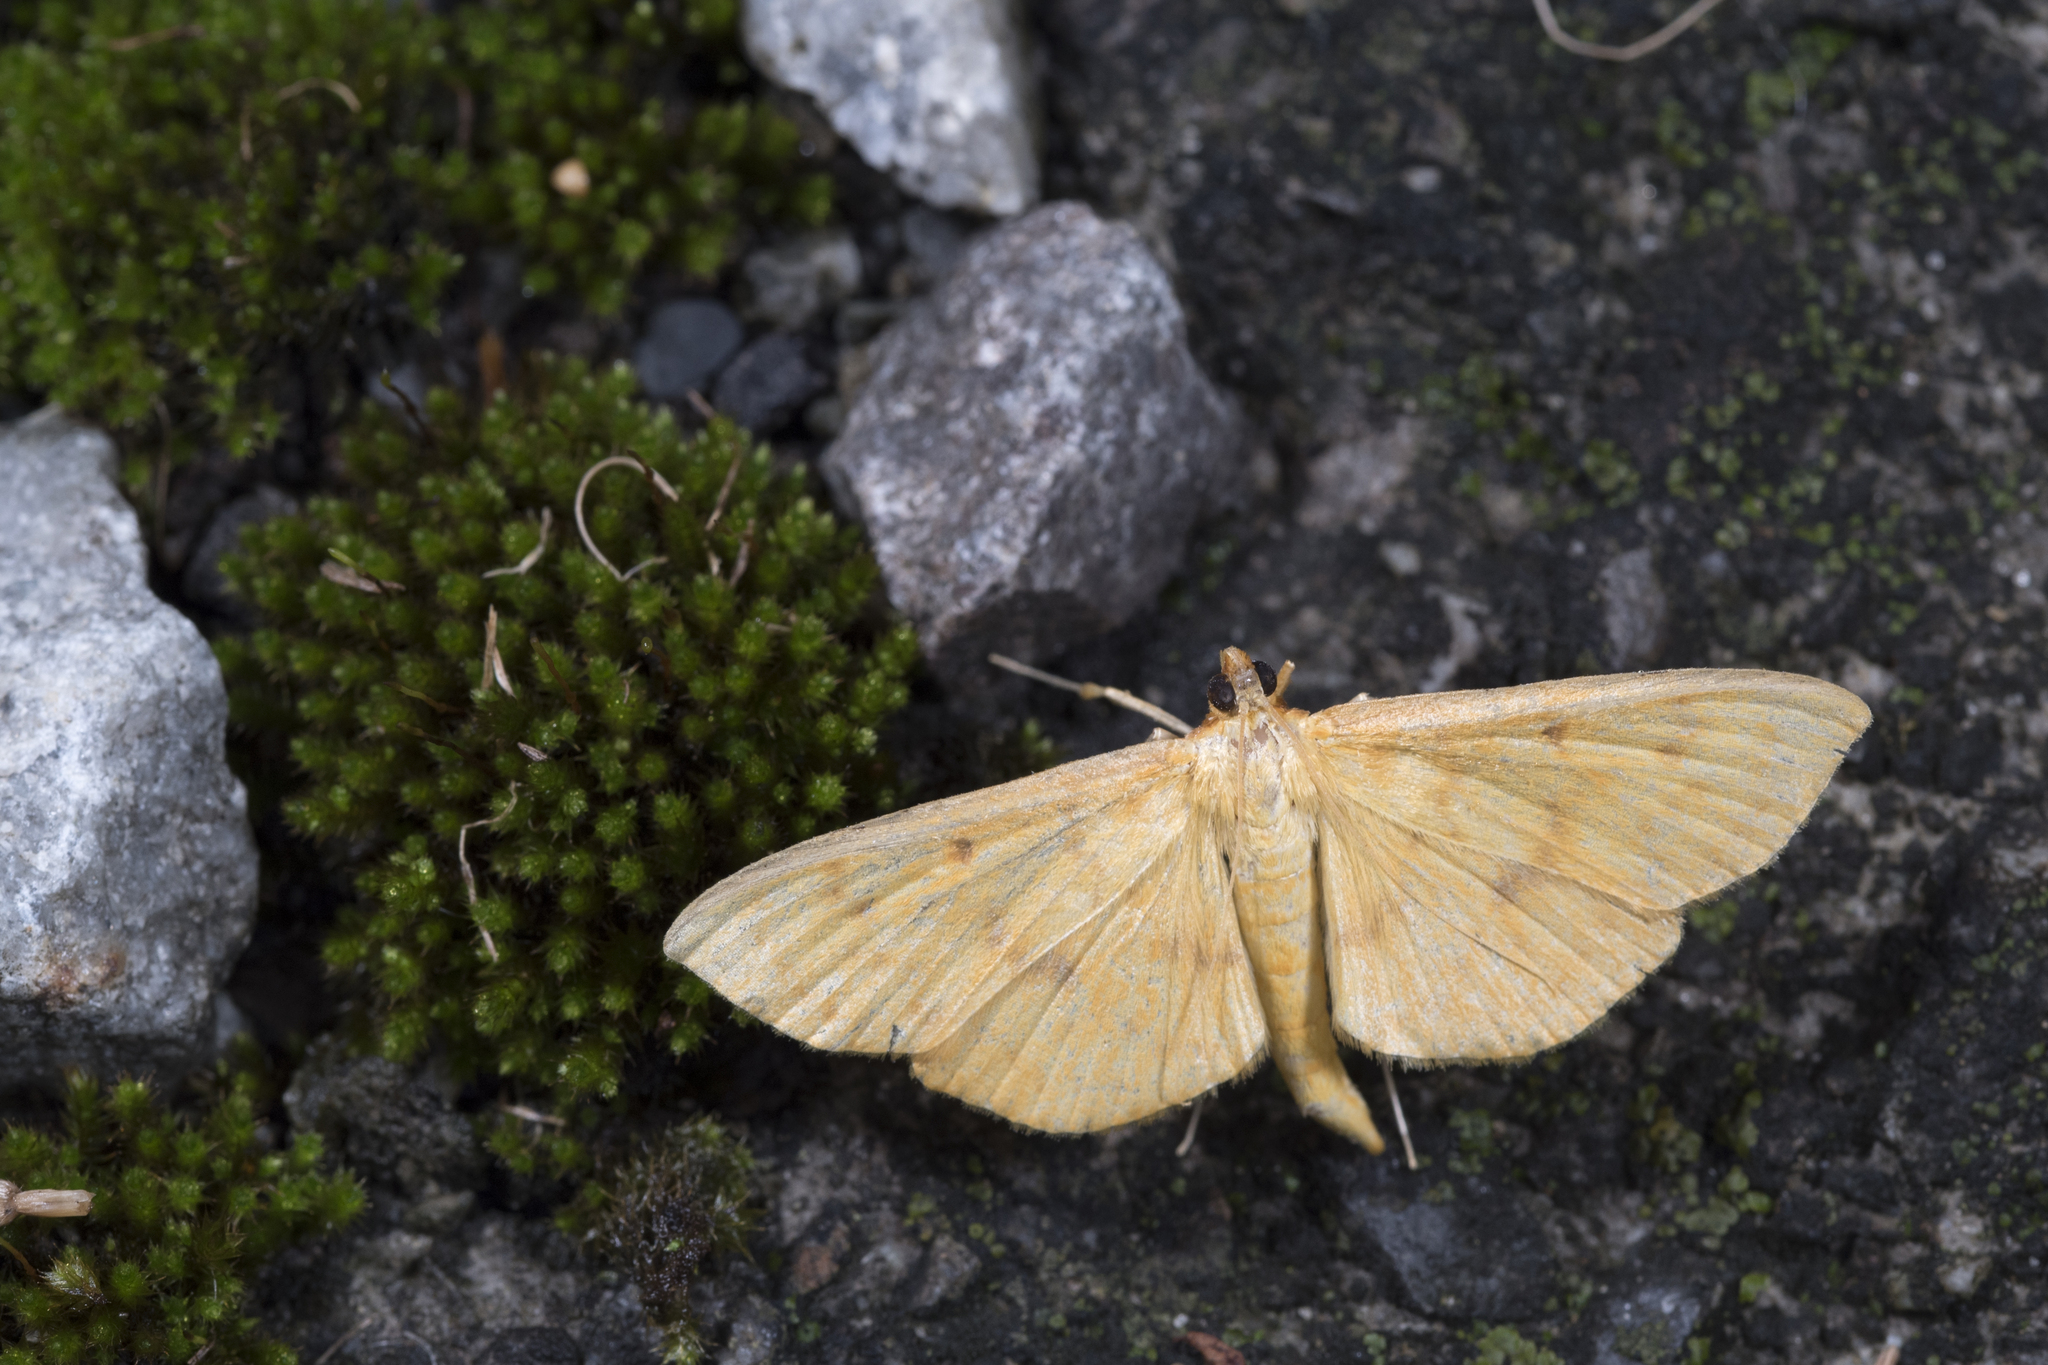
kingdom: Animalia
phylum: Arthropoda
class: Insecta
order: Lepidoptera
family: Crambidae
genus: Caldubotys
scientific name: Caldubotys caldusalis
